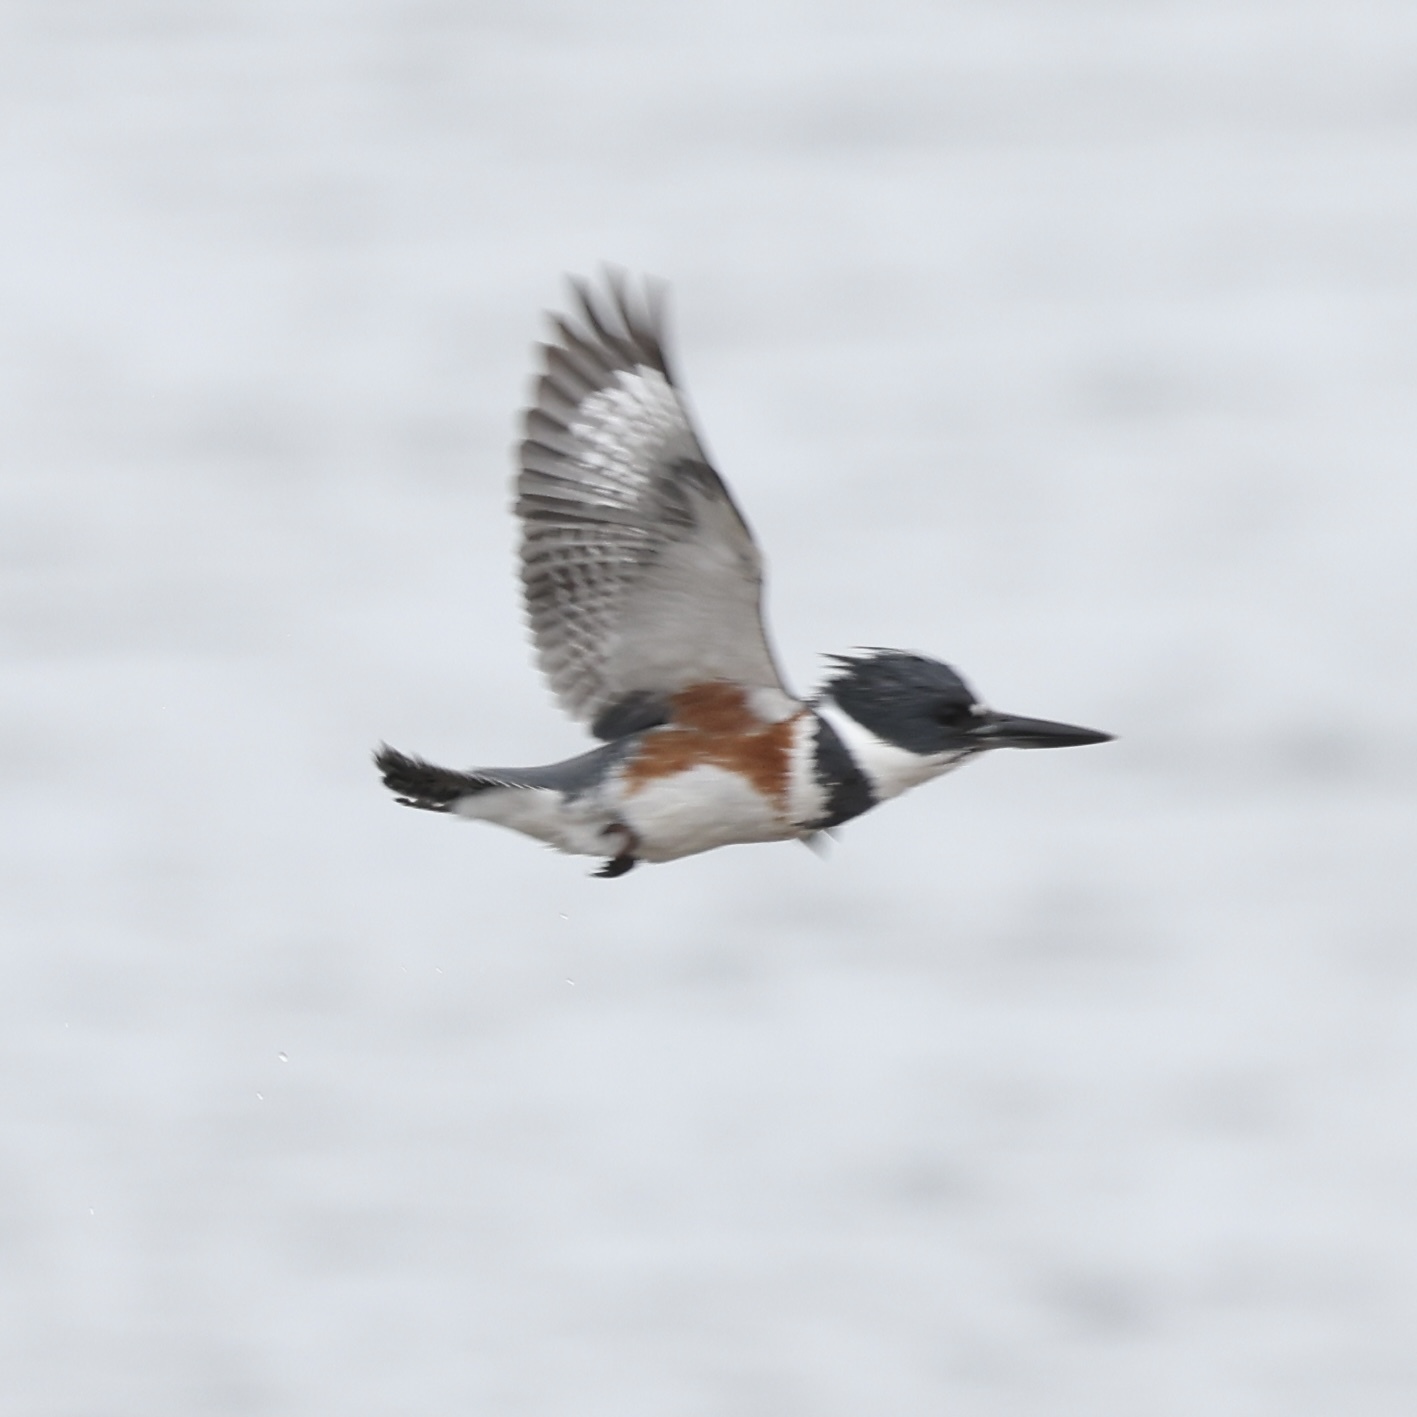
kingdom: Animalia
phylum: Chordata
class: Aves
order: Coraciiformes
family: Alcedinidae
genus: Megaceryle
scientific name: Megaceryle alcyon
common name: Belted kingfisher
